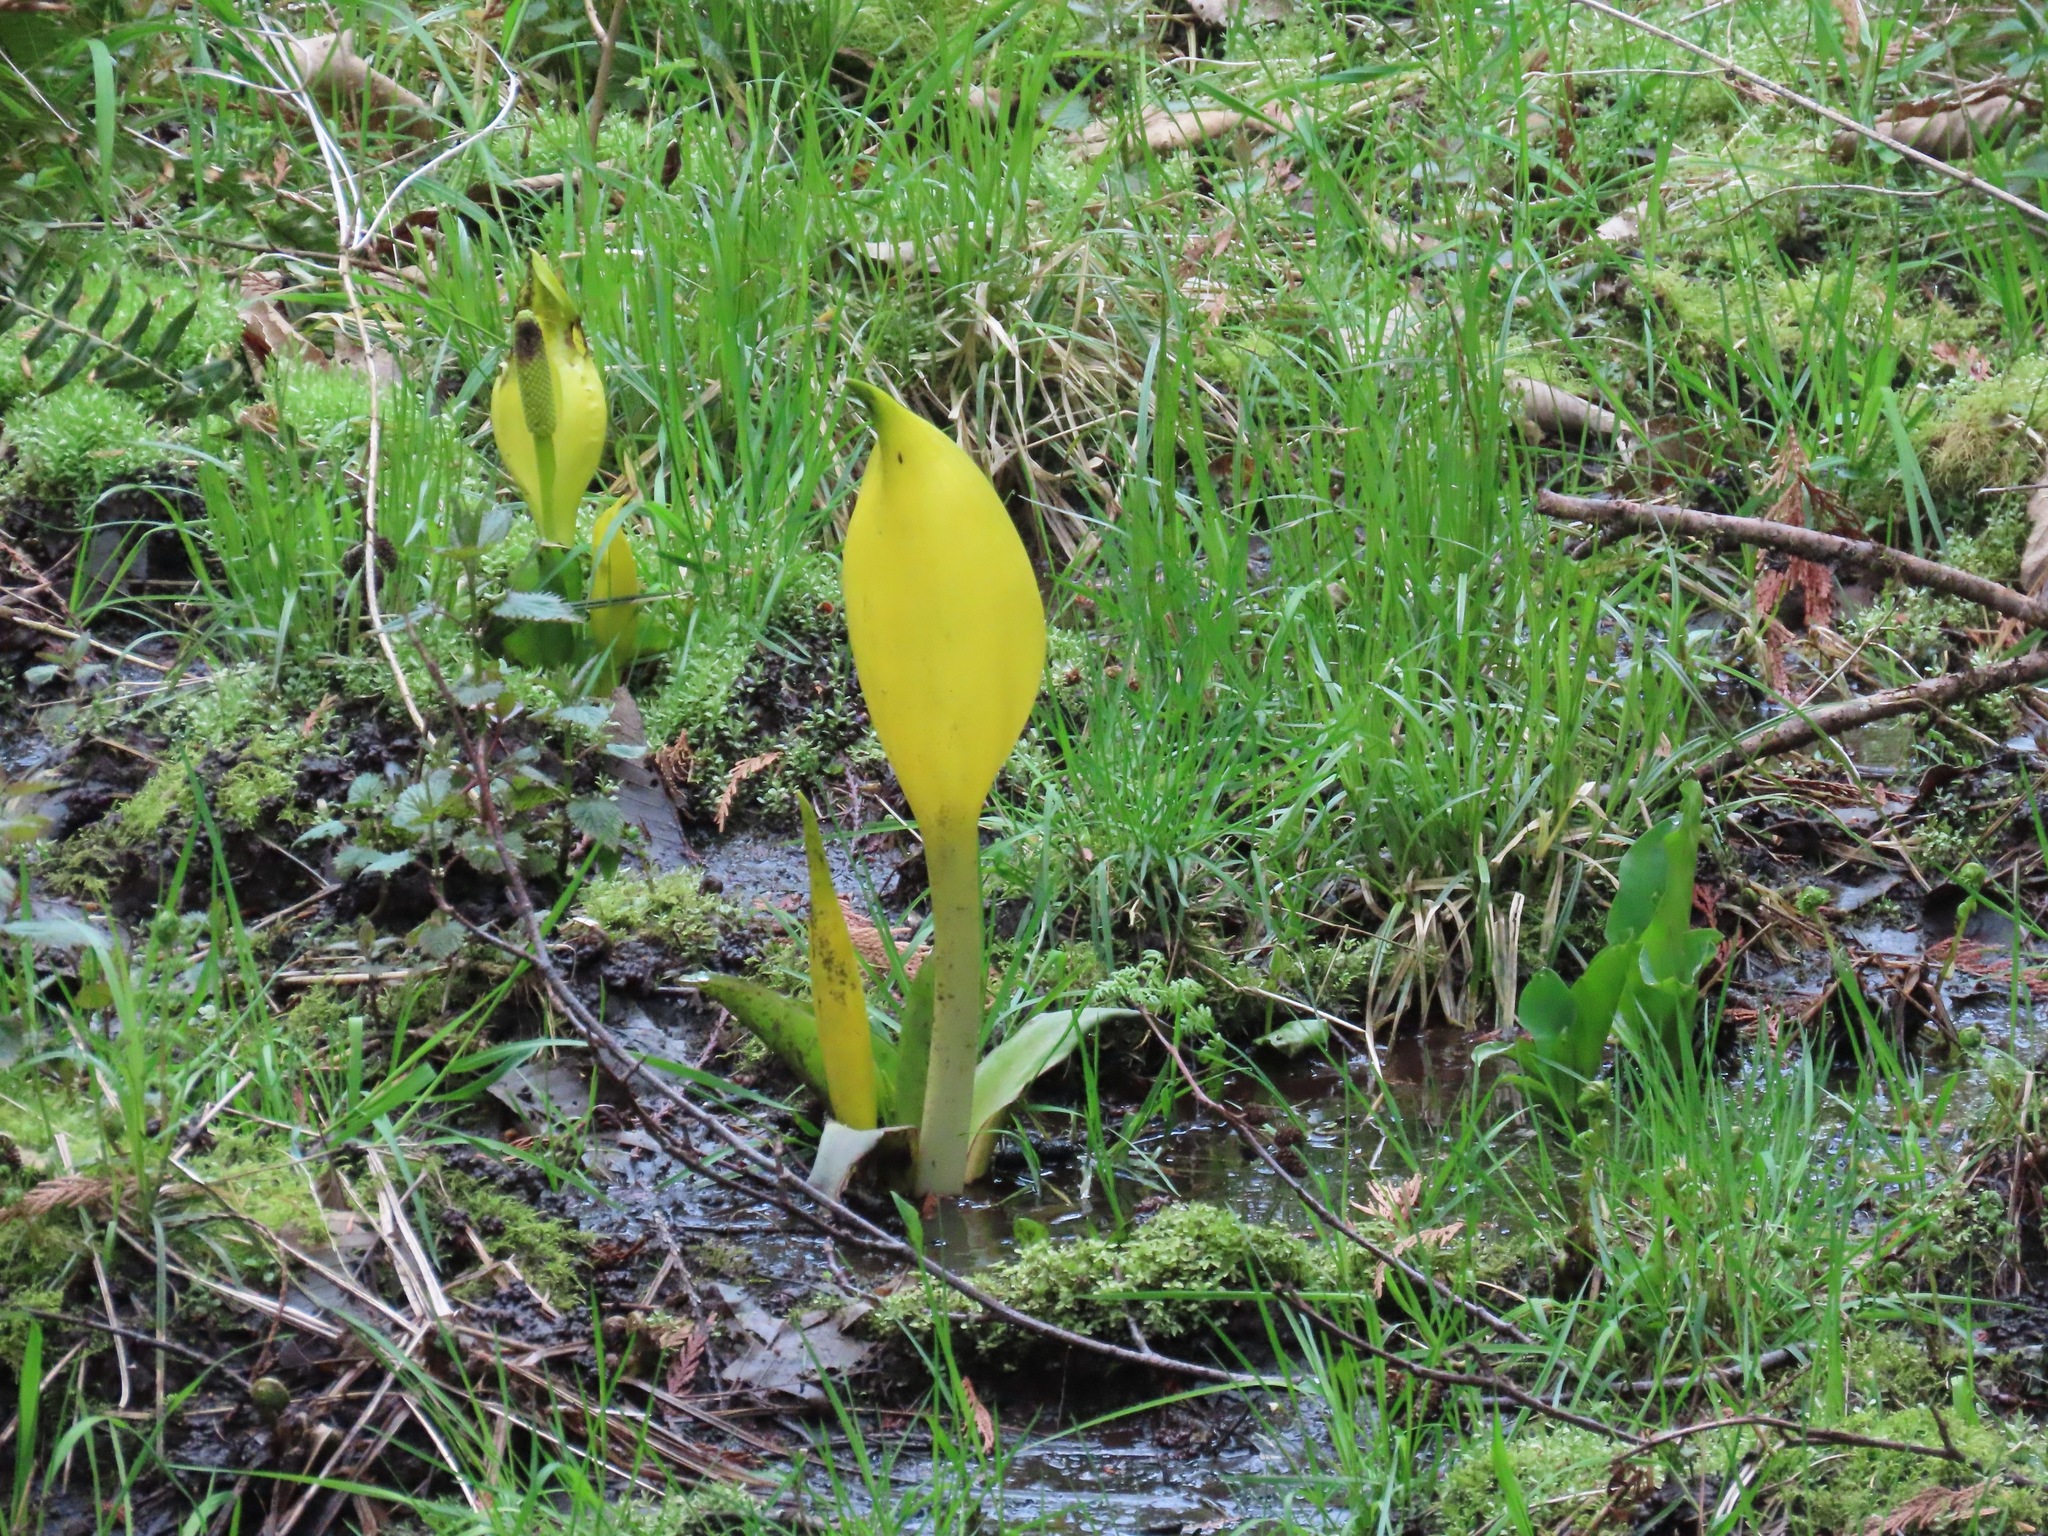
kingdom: Plantae
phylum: Tracheophyta
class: Liliopsida
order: Alismatales
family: Araceae
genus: Lysichiton
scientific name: Lysichiton americanus
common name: American skunk cabbage
